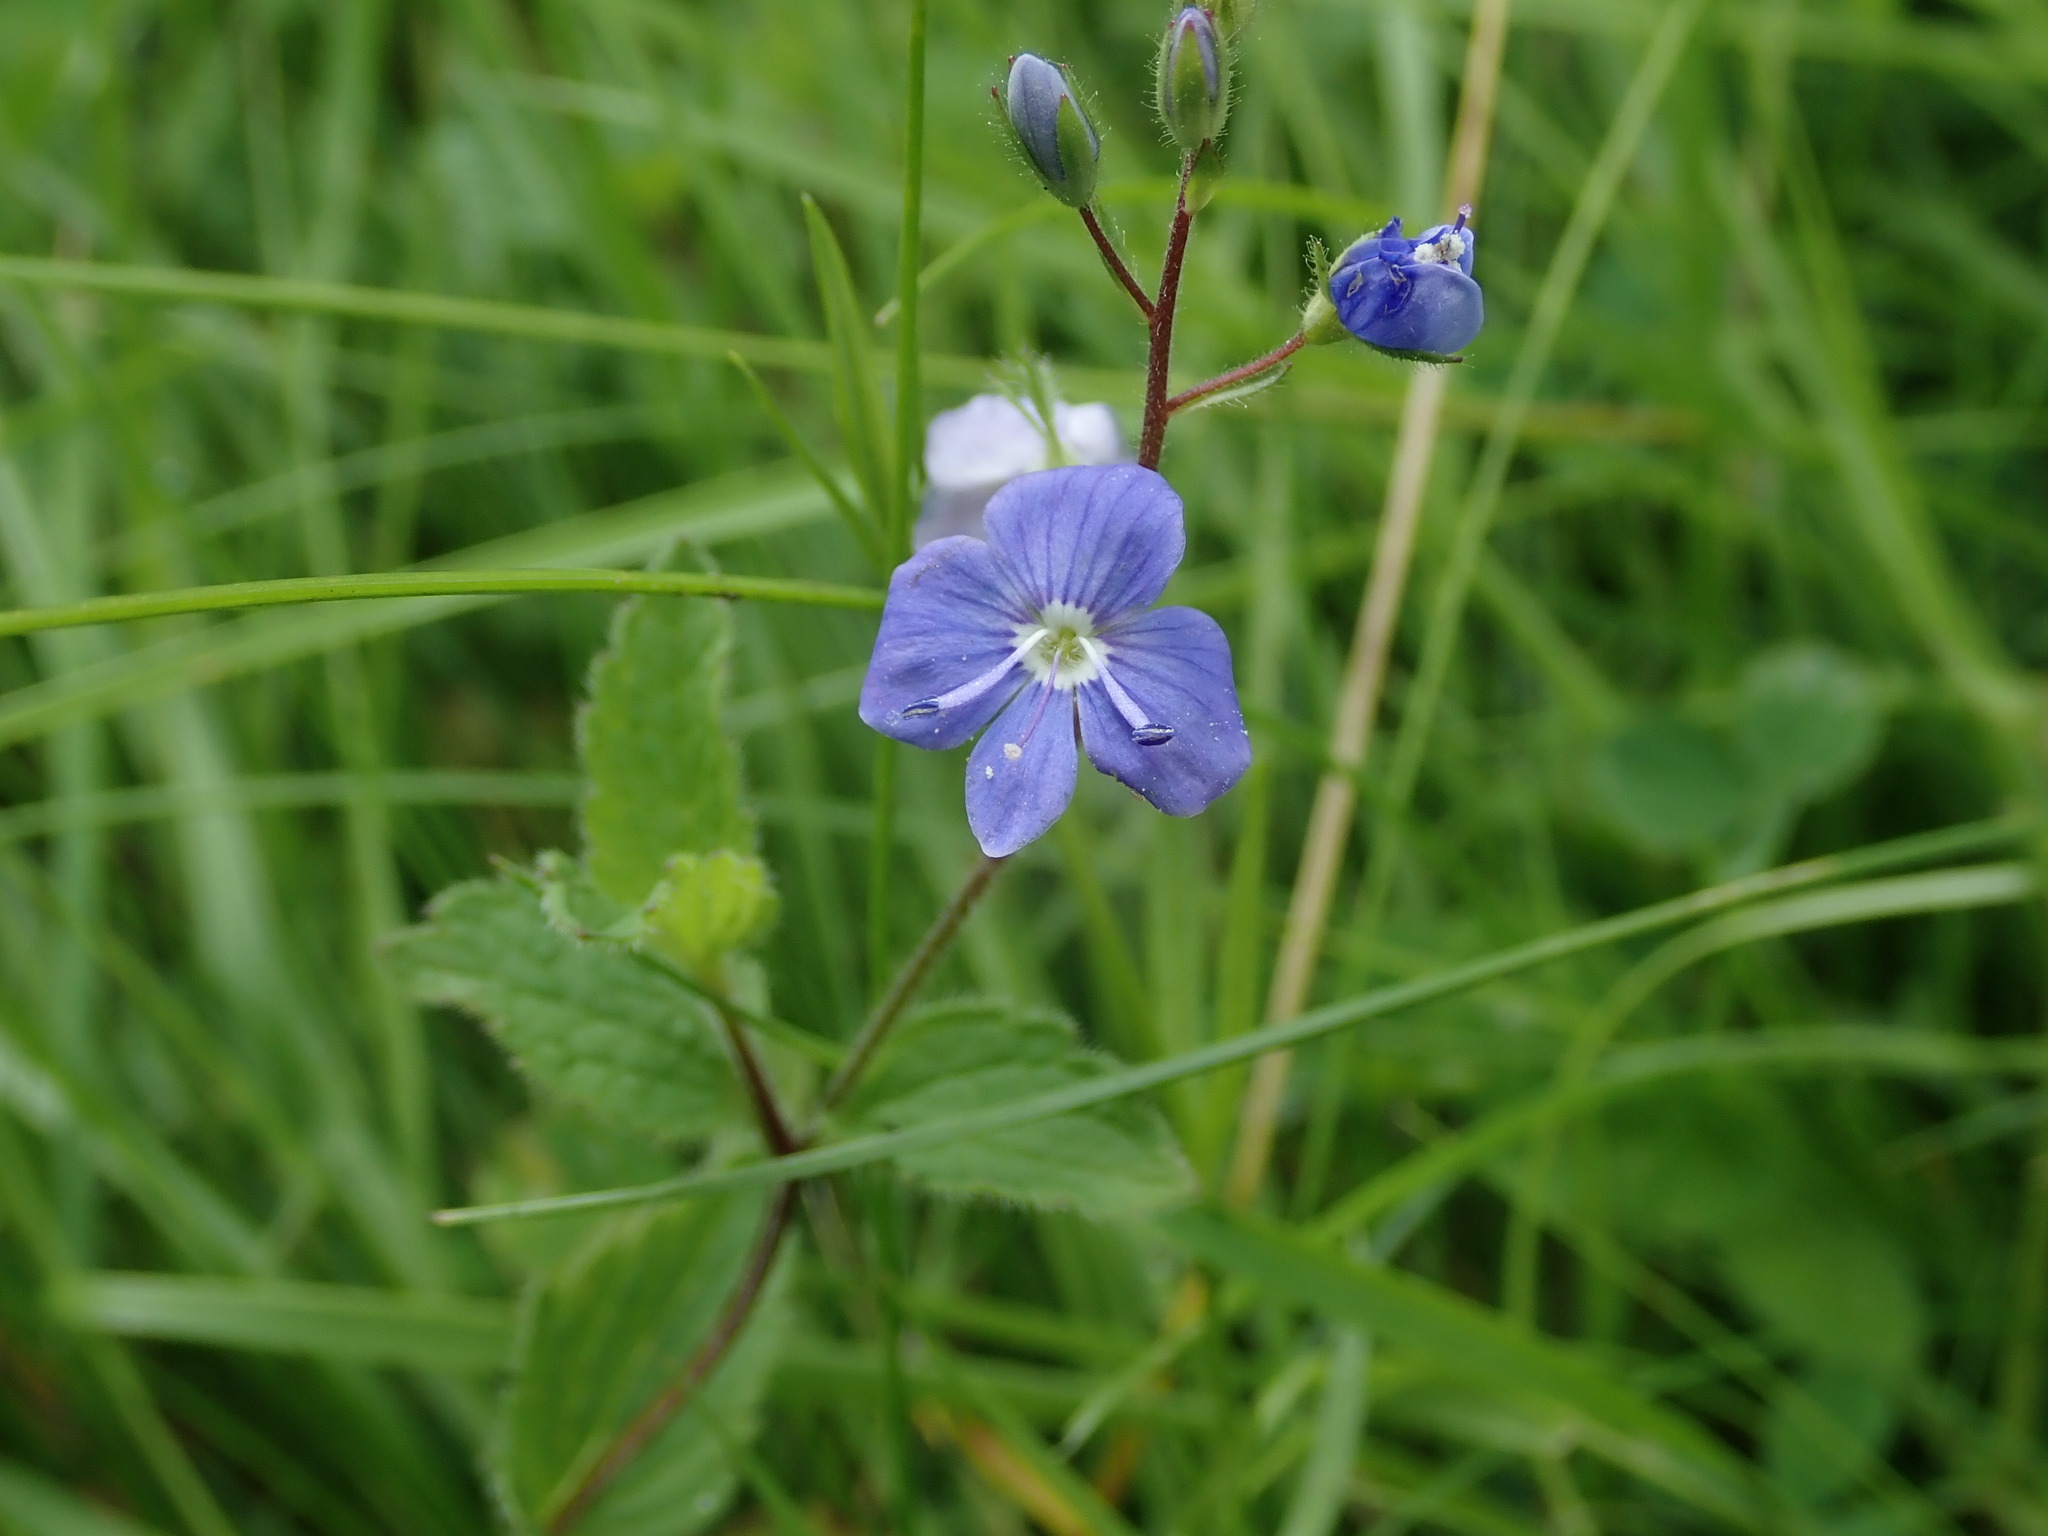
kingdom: Plantae
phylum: Tracheophyta
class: Magnoliopsida
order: Lamiales
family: Plantaginaceae
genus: Veronica
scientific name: Veronica chamaedrys
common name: Germander speedwell
